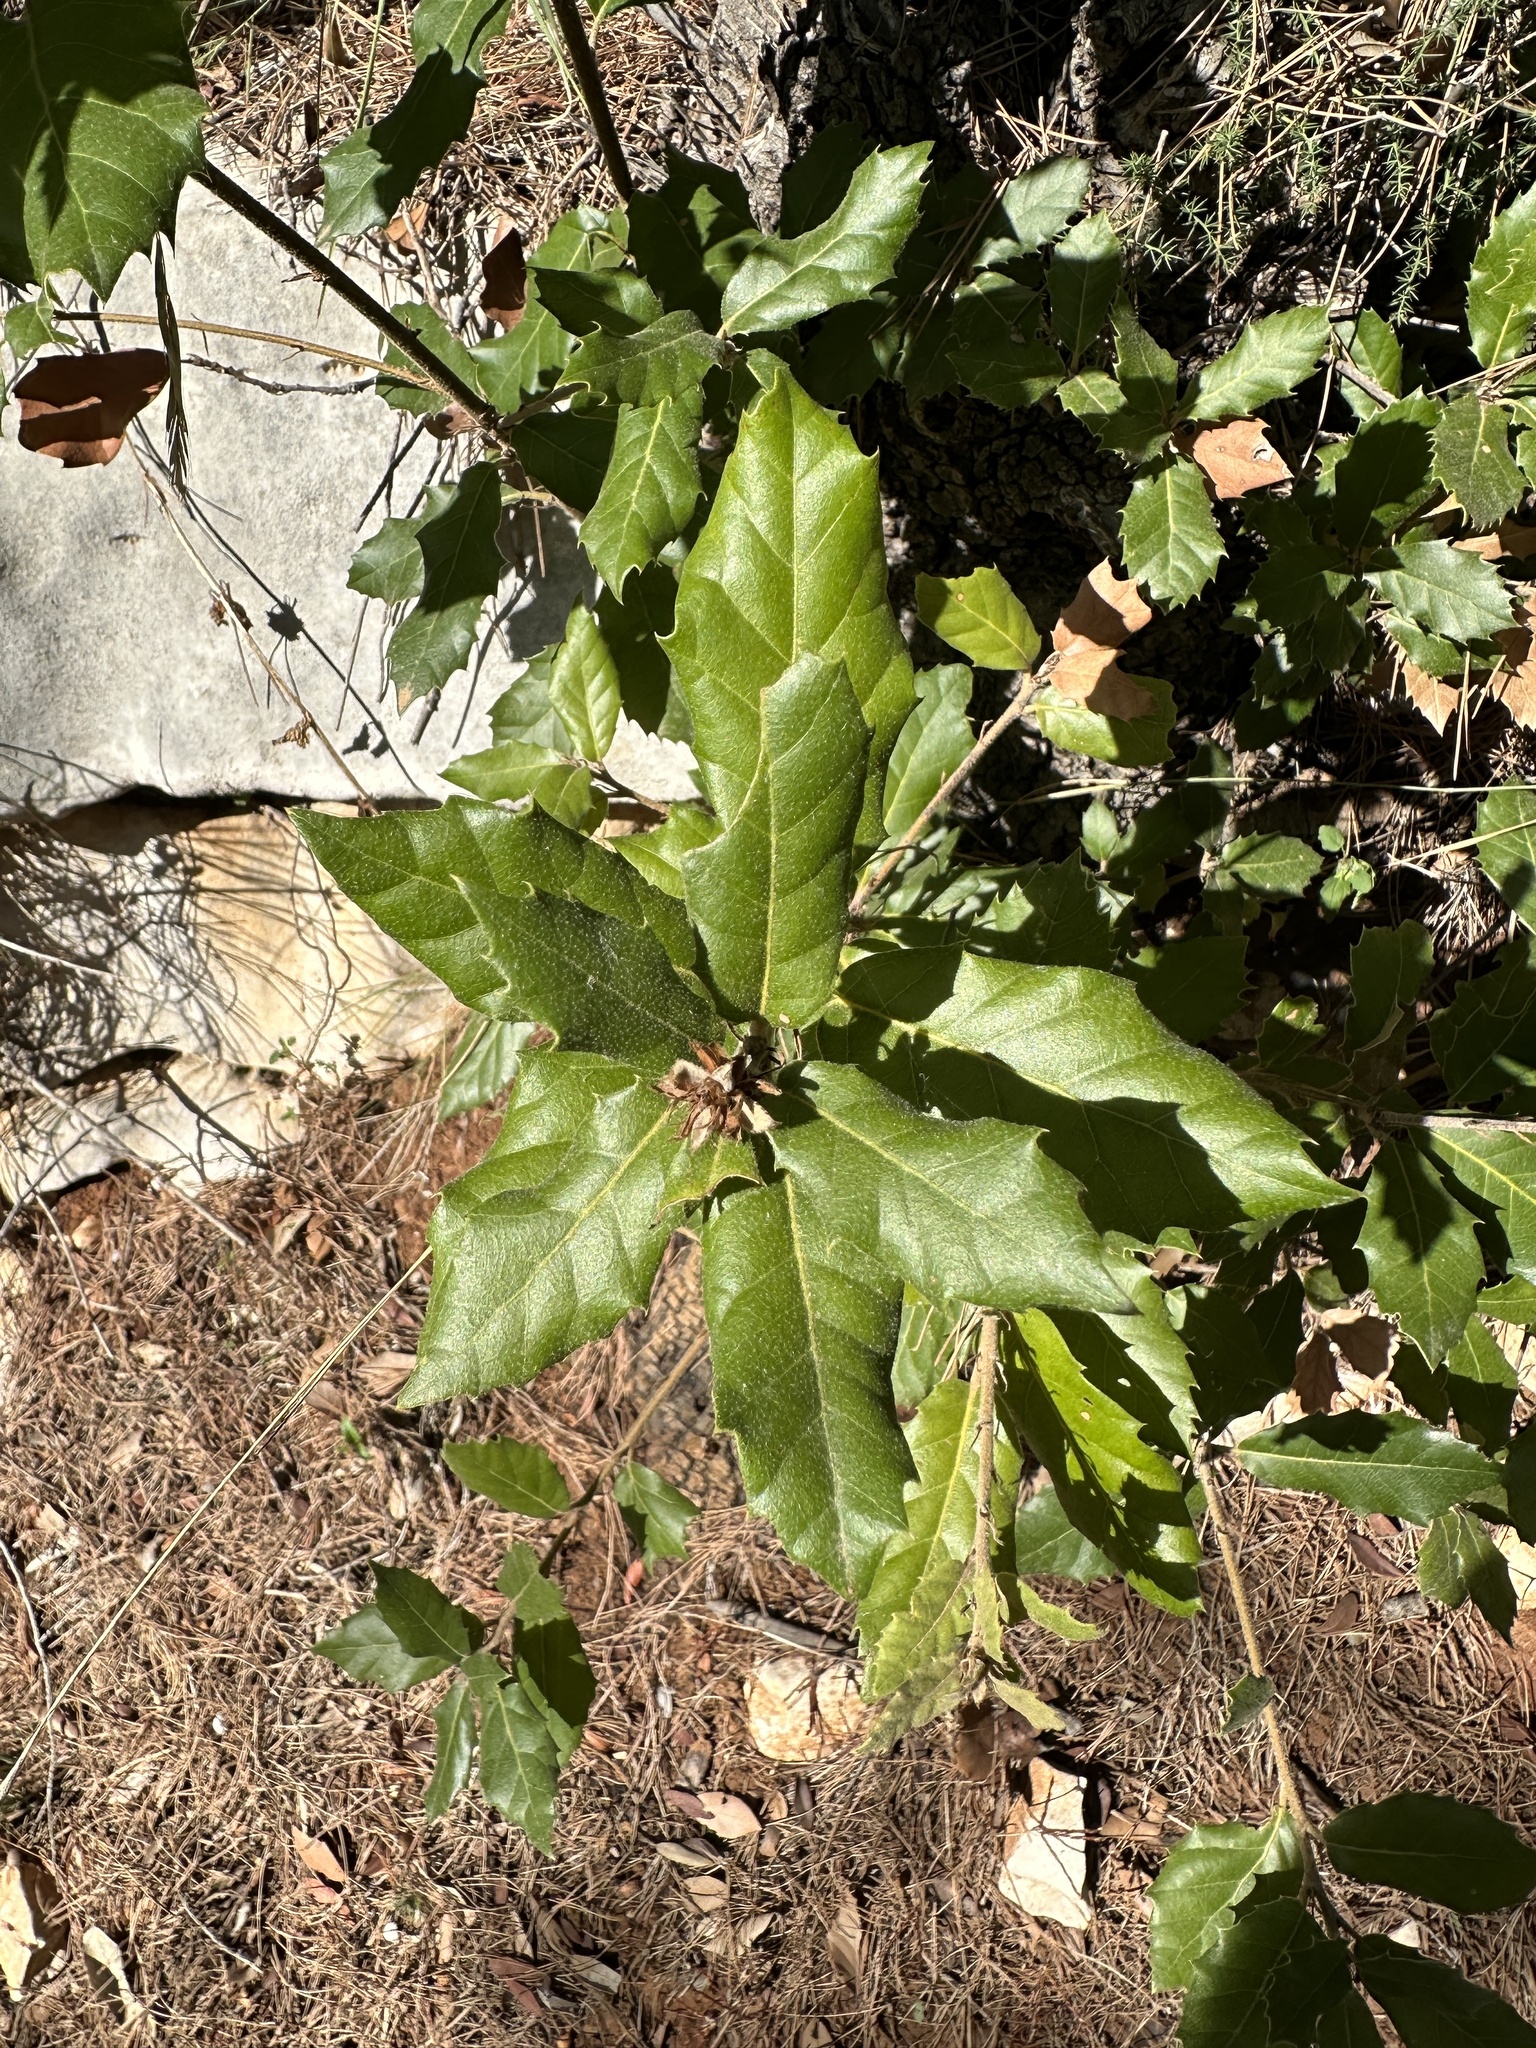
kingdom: Plantae
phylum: Tracheophyta
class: Magnoliopsida
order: Fagales
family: Fagaceae
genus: Quercus
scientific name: Quercus ilex
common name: Evergreen oak
